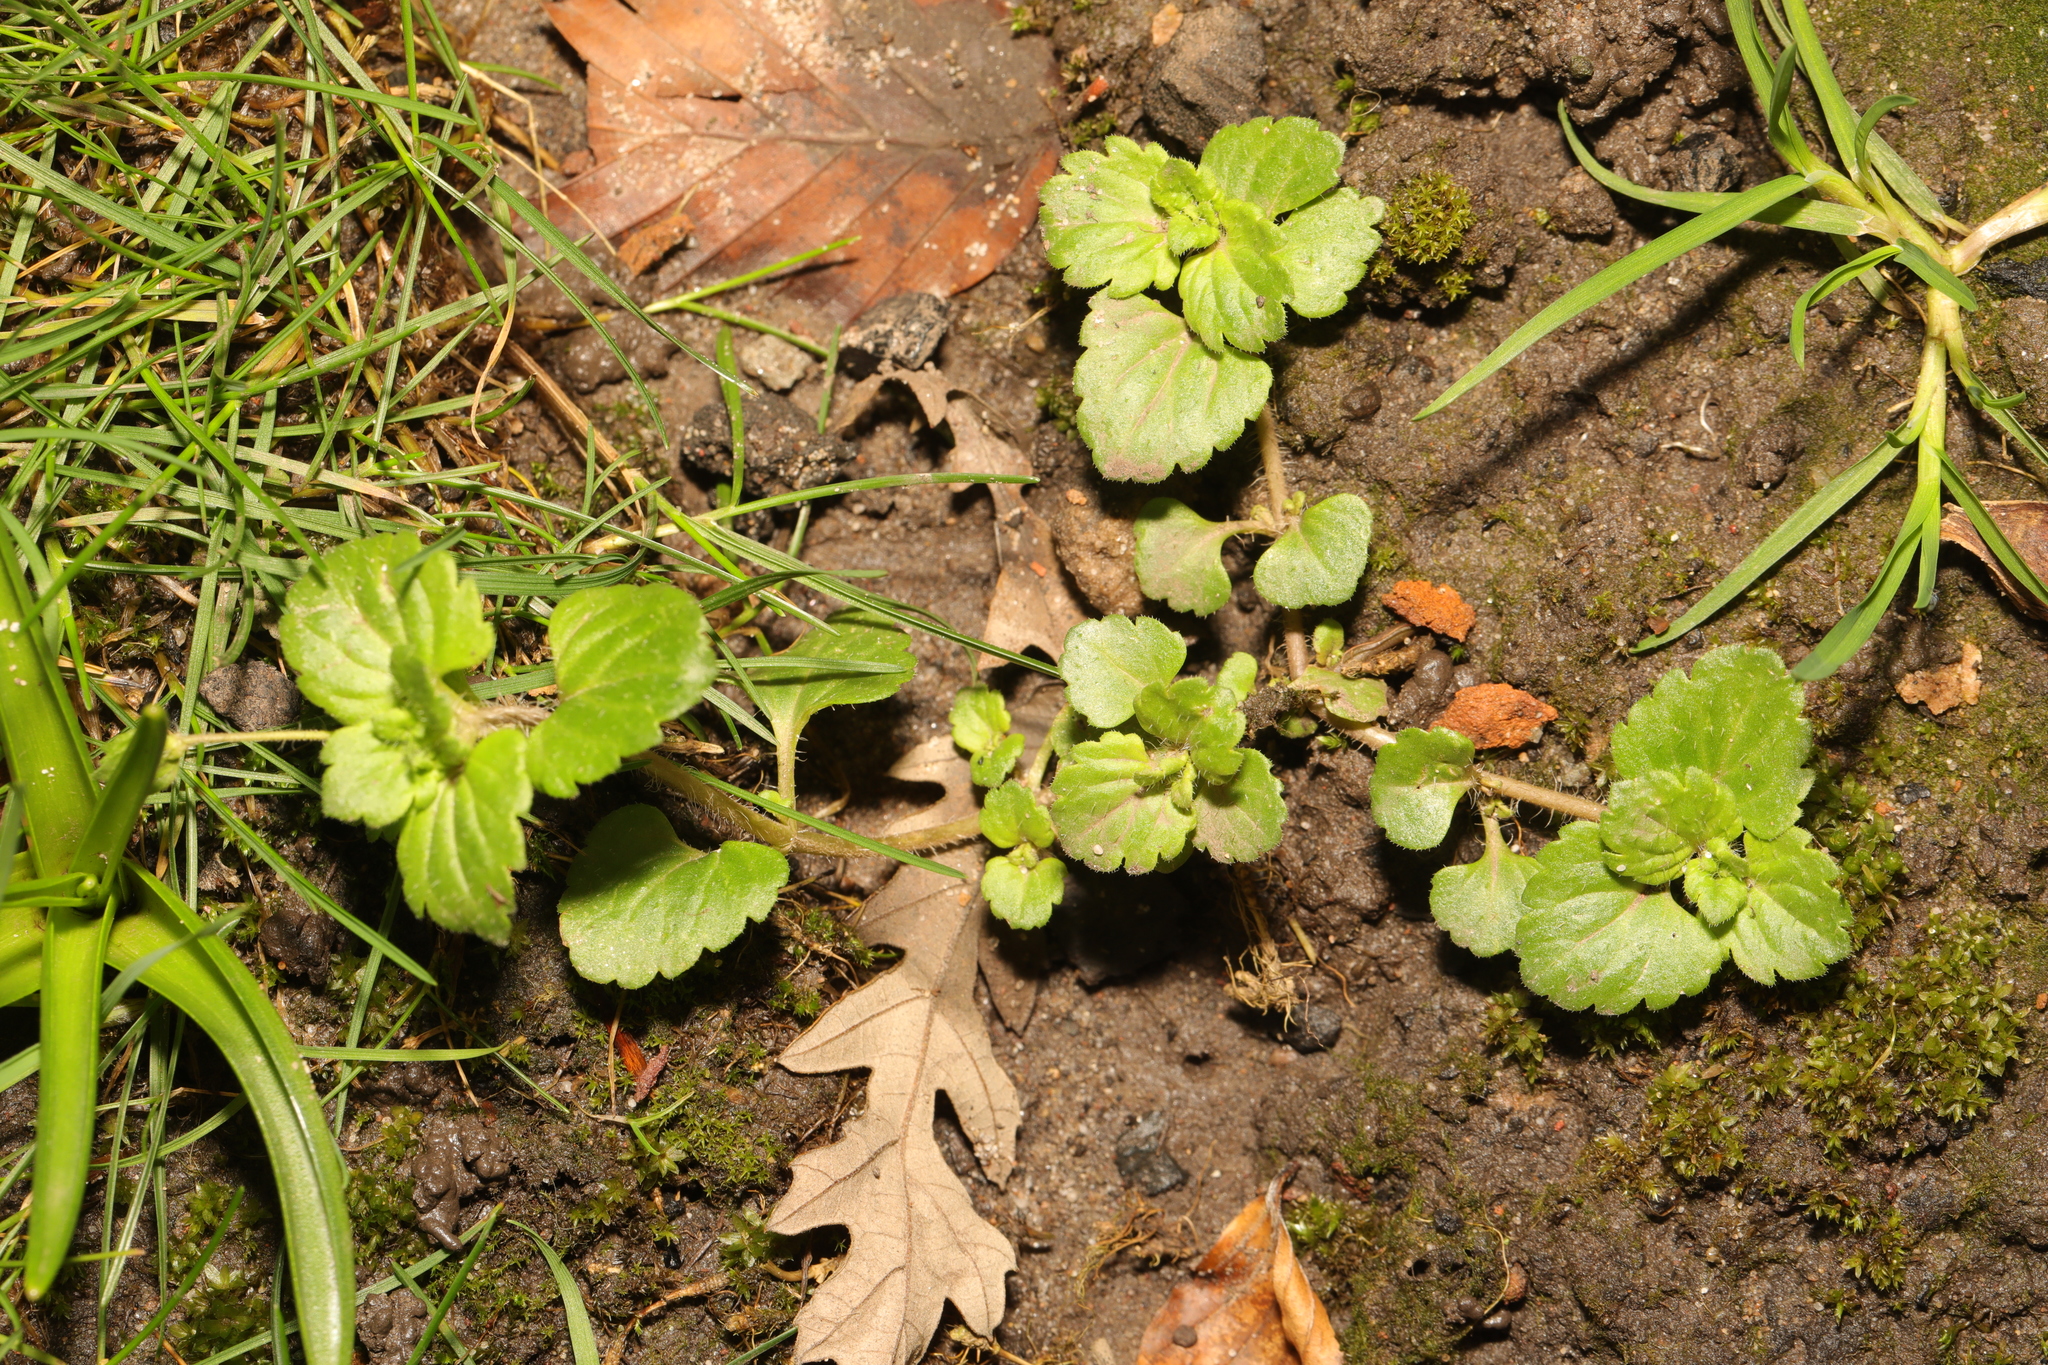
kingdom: Plantae
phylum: Tracheophyta
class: Magnoliopsida
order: Lamiales
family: Plantaginaceae
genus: Veronica
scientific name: Veronica persica
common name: Common field-speedwell
